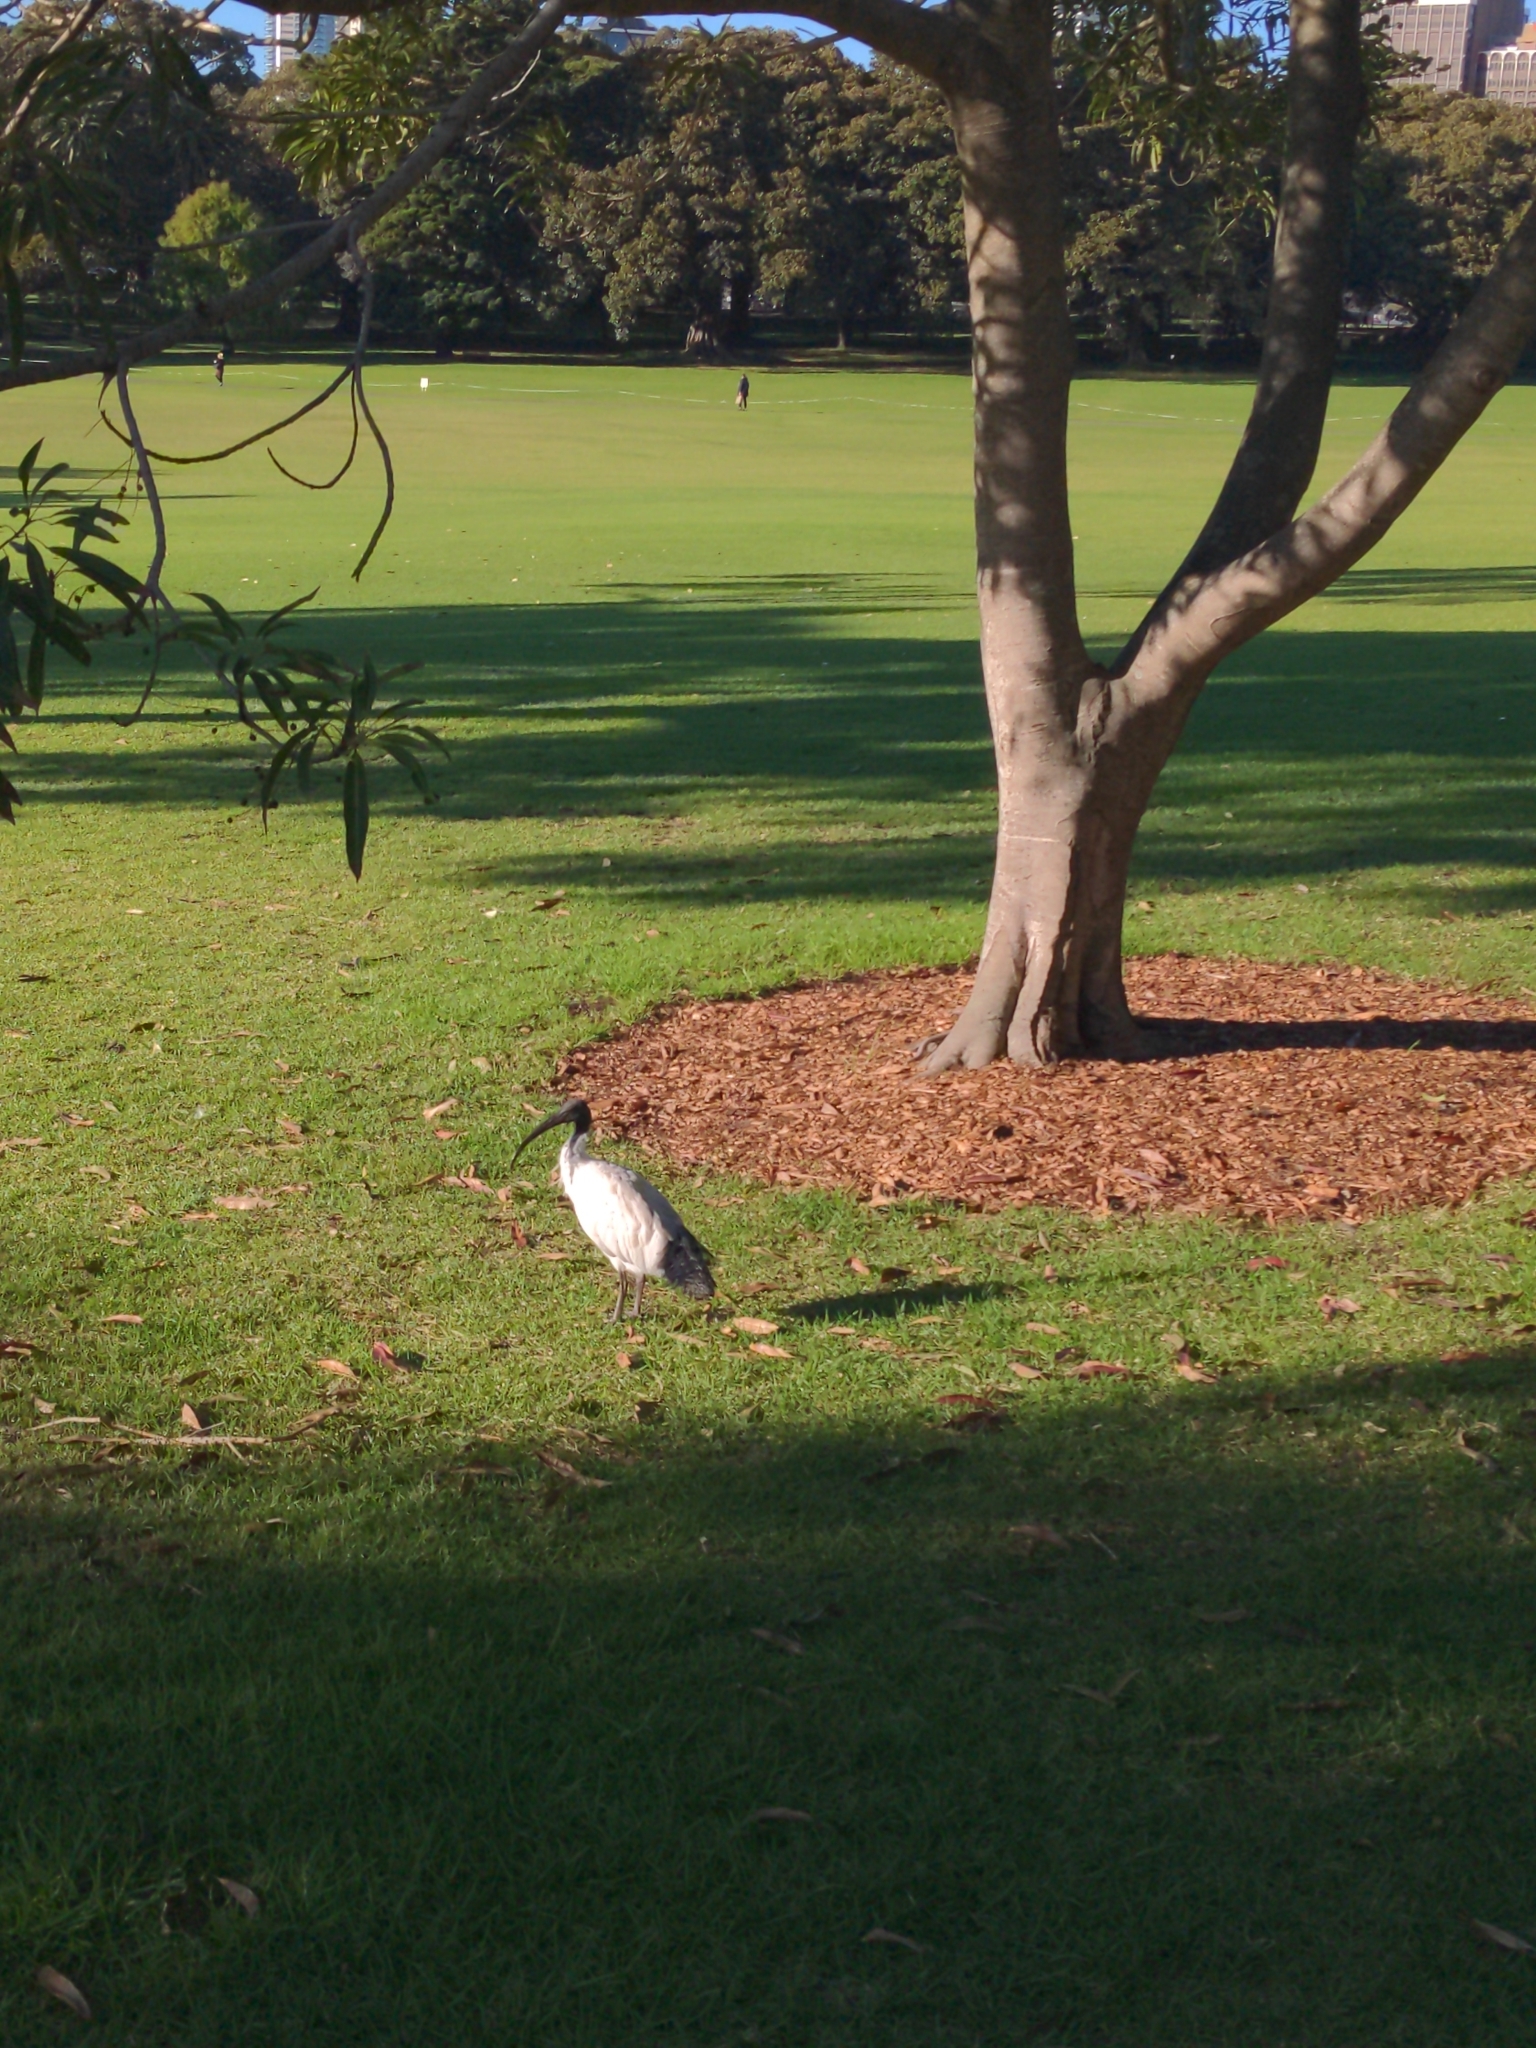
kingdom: Animalia
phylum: Chordata
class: Aves
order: Pelecaniformes
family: Threskiornithidae
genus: Threskiornis
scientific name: Threskiornis molucca
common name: Australian white ibis
